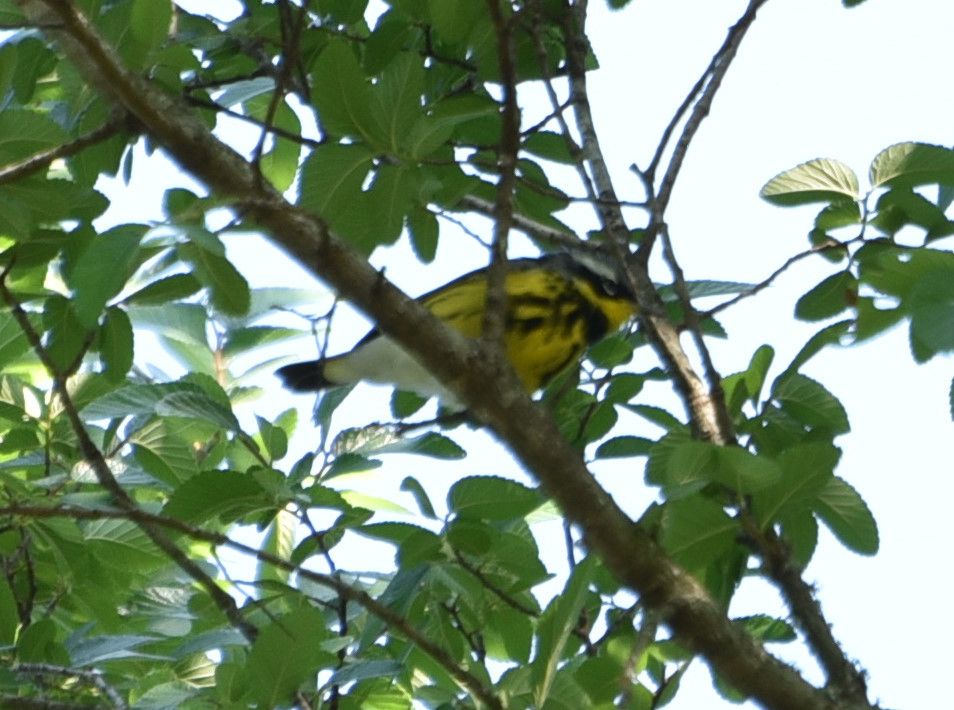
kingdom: Animalia
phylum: Chordata
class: Aves
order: Passeriformes
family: Parulidae
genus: Setophaga
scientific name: Setophaga magnolia
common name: Magnolia warbler
